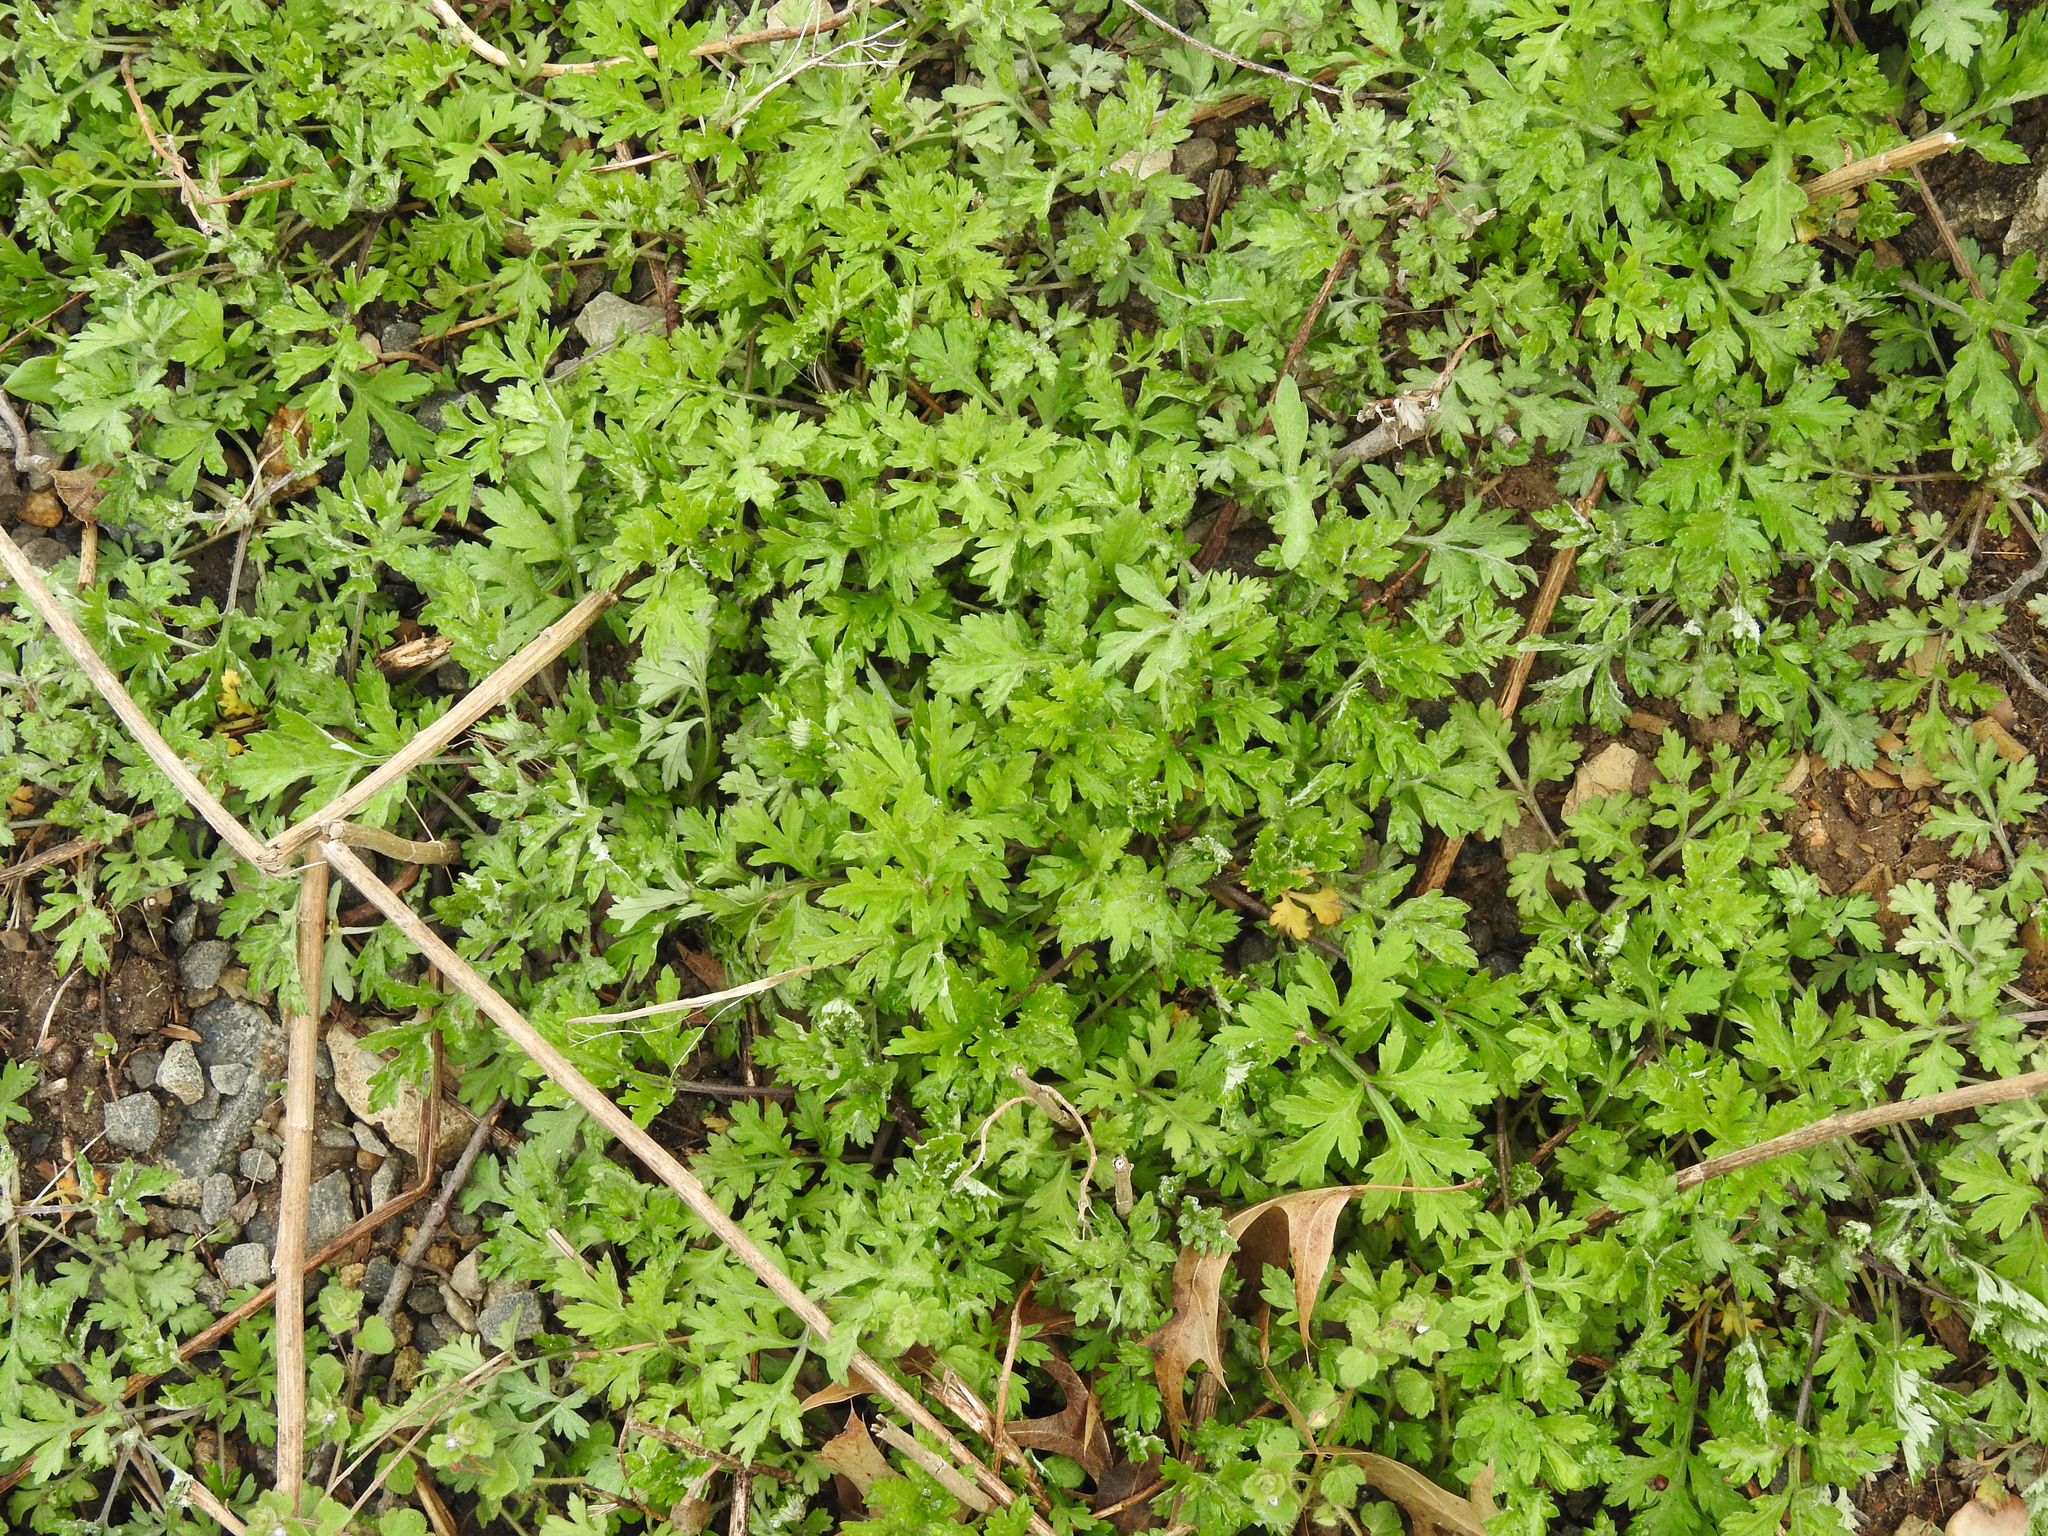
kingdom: Plantae
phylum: Tracheophyta
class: Magnoliopsida
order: Asterales
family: Asteraceae
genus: Artemisia
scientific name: Artemisia vulgaris
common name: Mugwort
